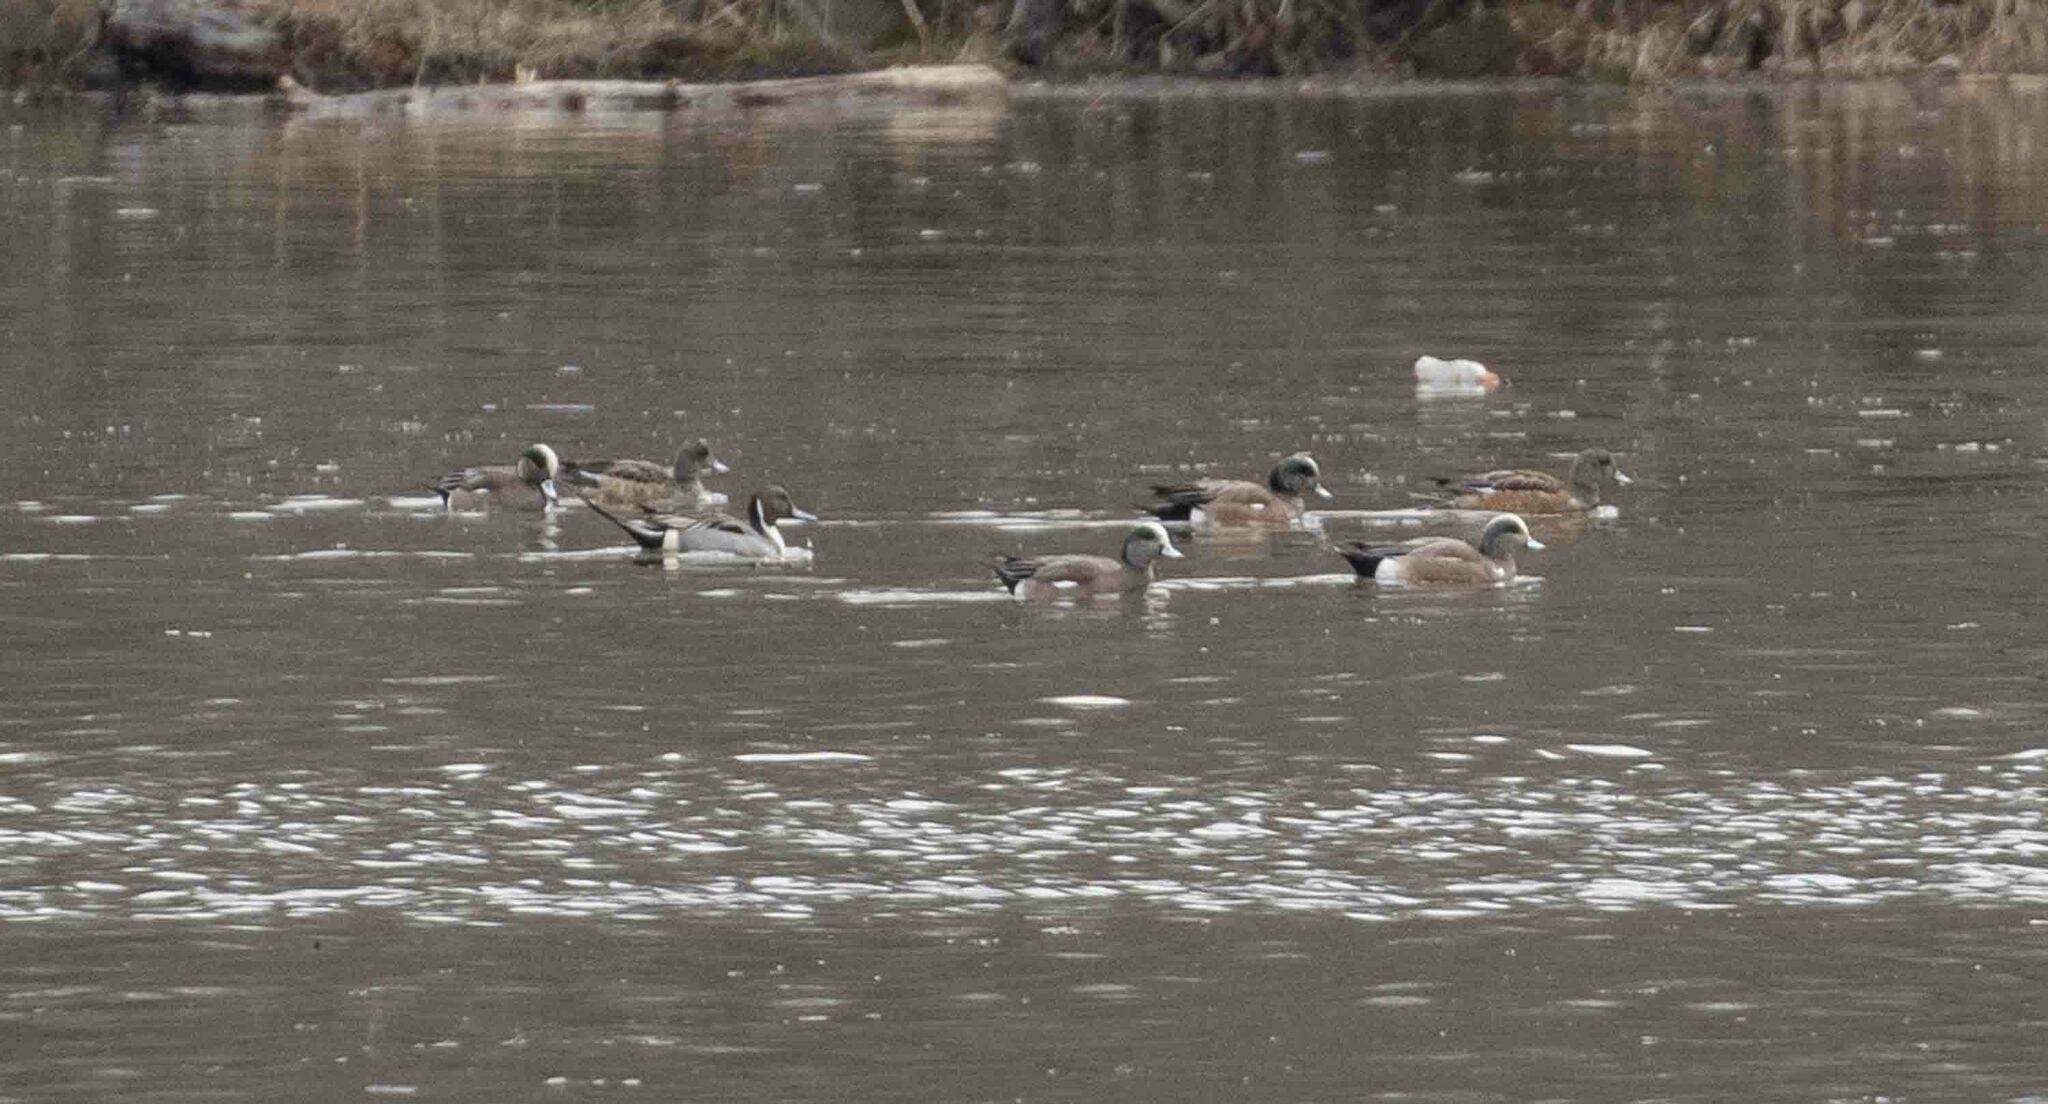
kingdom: Animalia
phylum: Chordata
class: Aves
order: Anseriformes
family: Anatidae
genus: Anas
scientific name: Anas acuta
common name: Northern pintail
